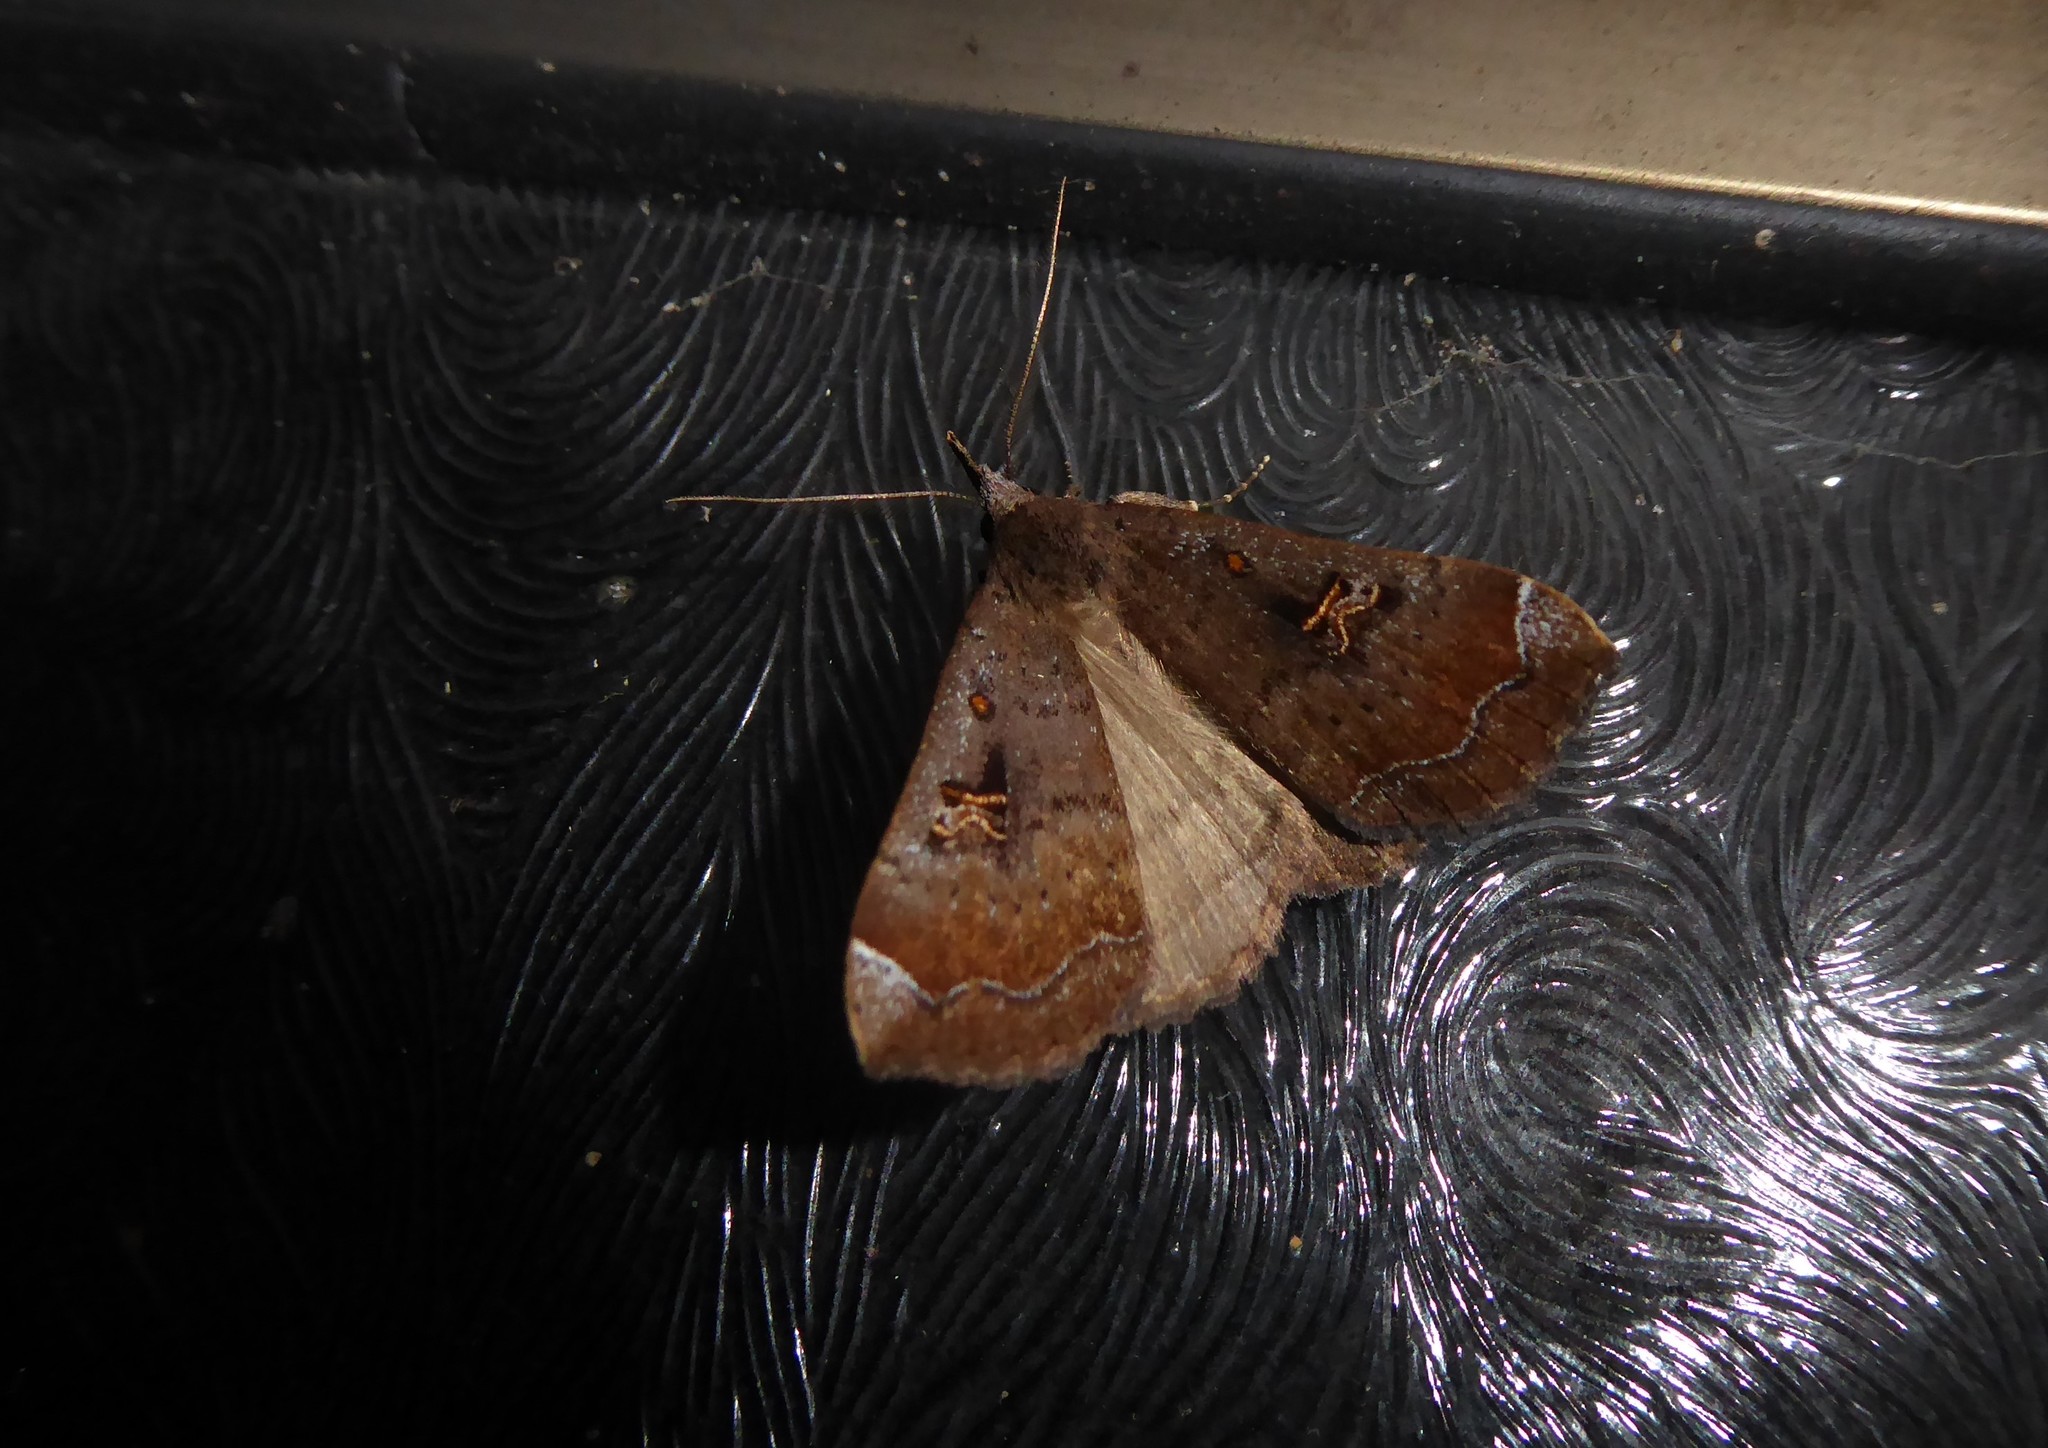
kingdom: Animalia
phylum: Arthropoda
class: Insecta
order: Lepidoptera
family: Erebidae
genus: Rhapsa
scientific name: Rhapsa scotosialis
